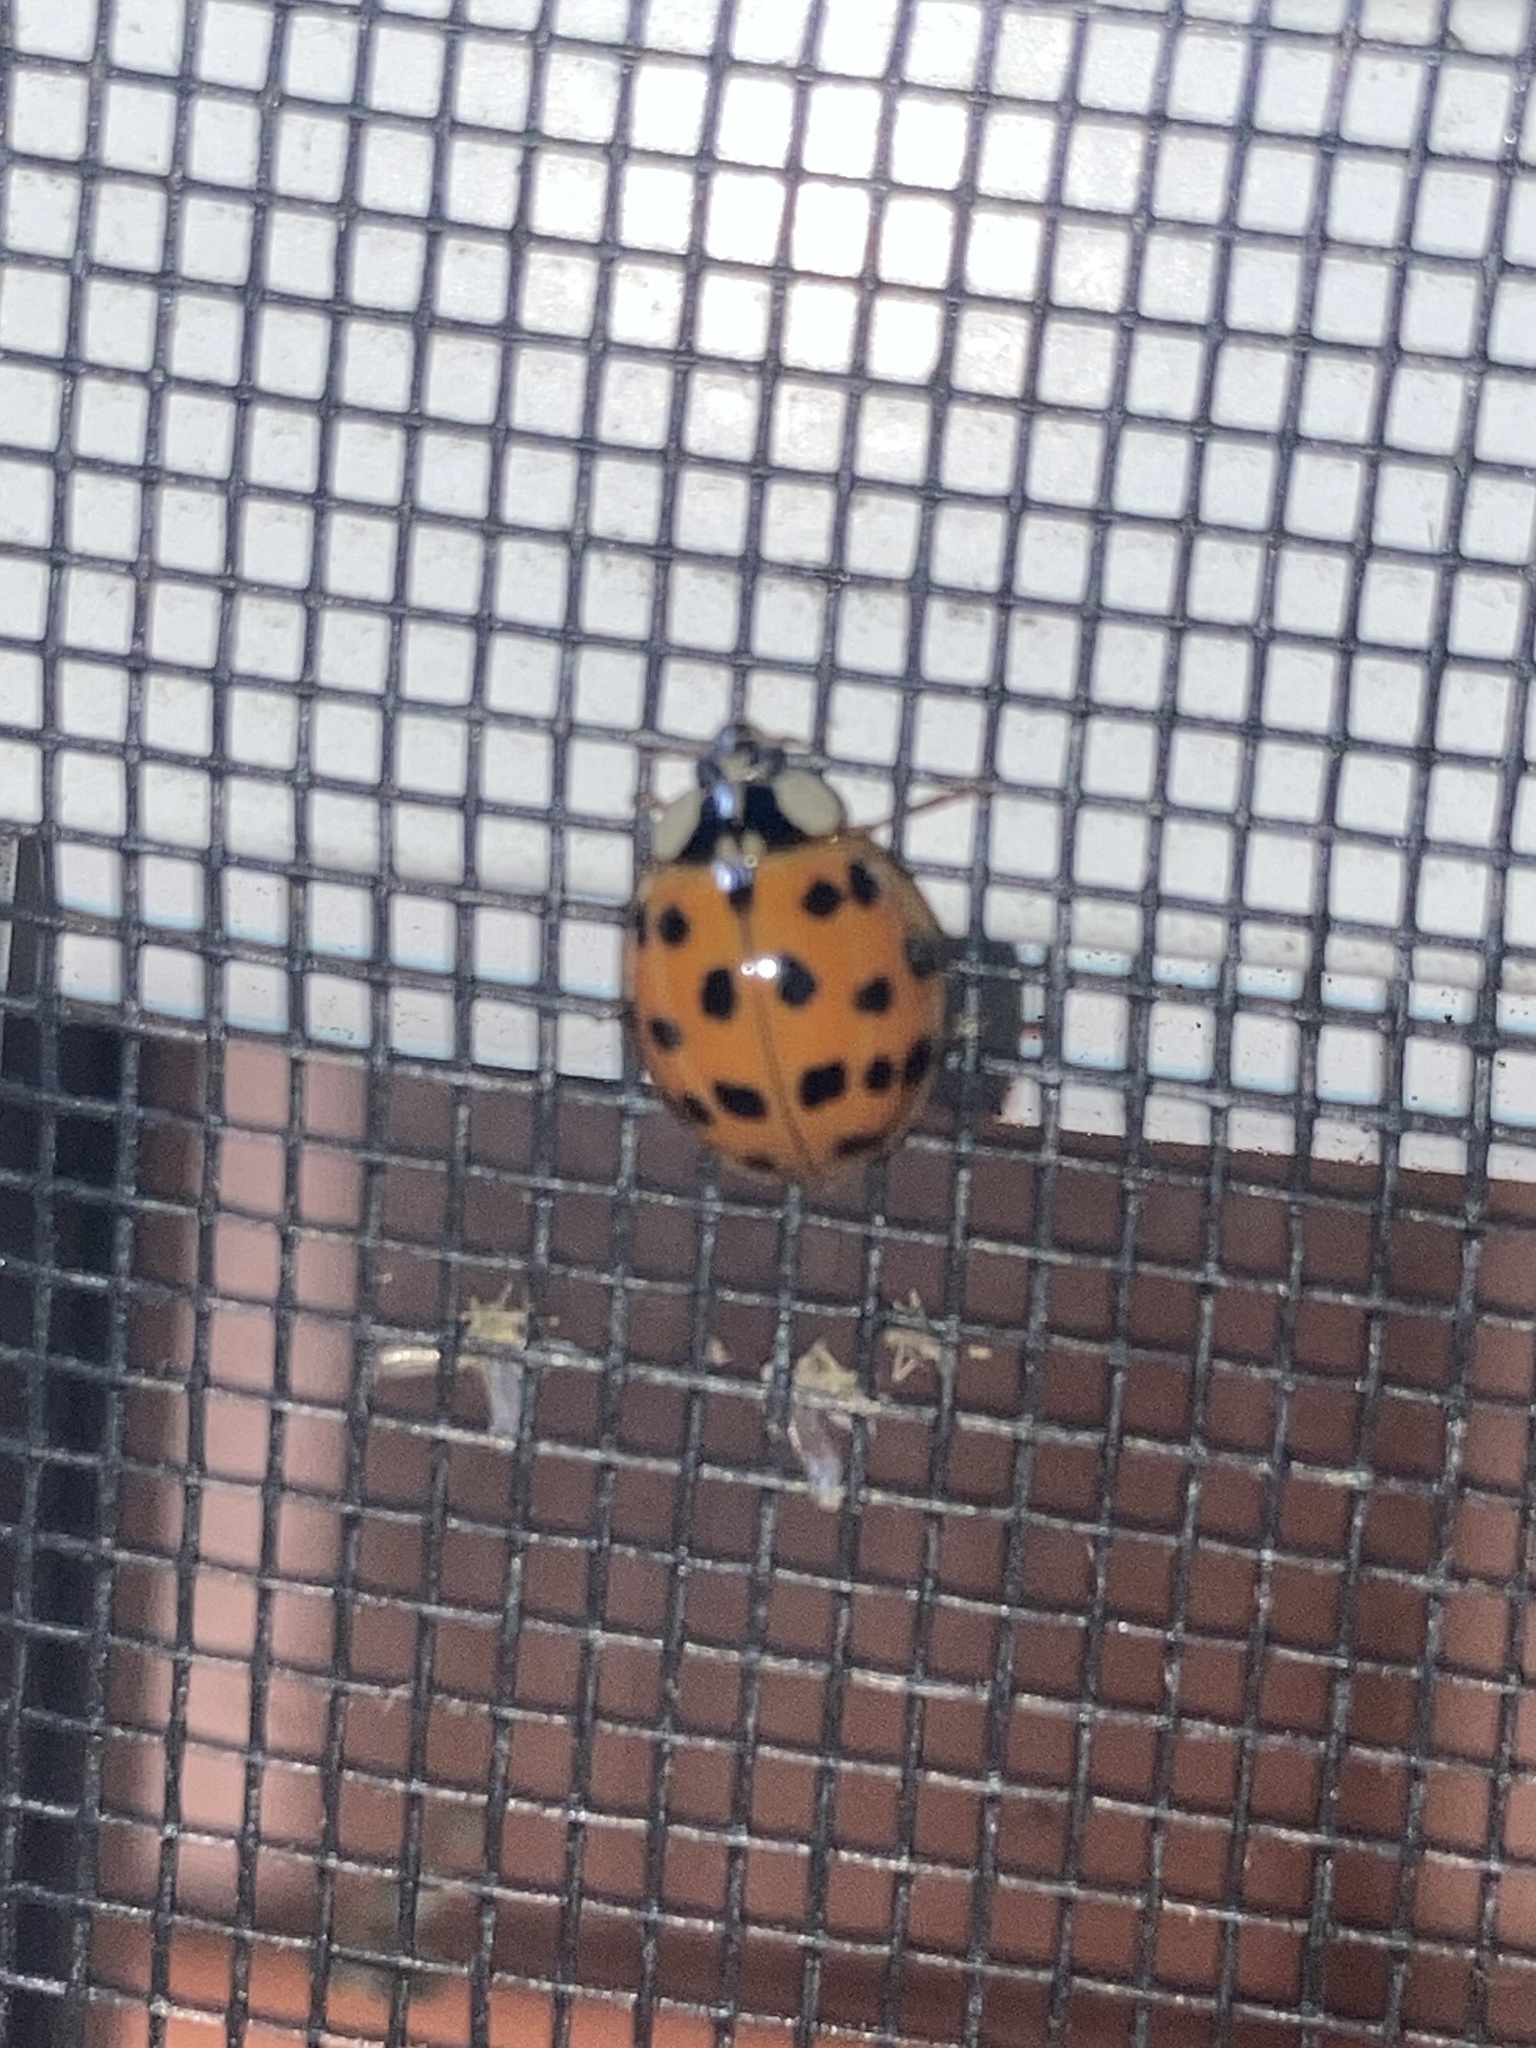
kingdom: Animalia
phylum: Arthropoda
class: Insecta
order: Coleoptera
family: Coccinellidae
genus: Harmonia
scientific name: Harmonia axyridis
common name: Harlequin ladybird
